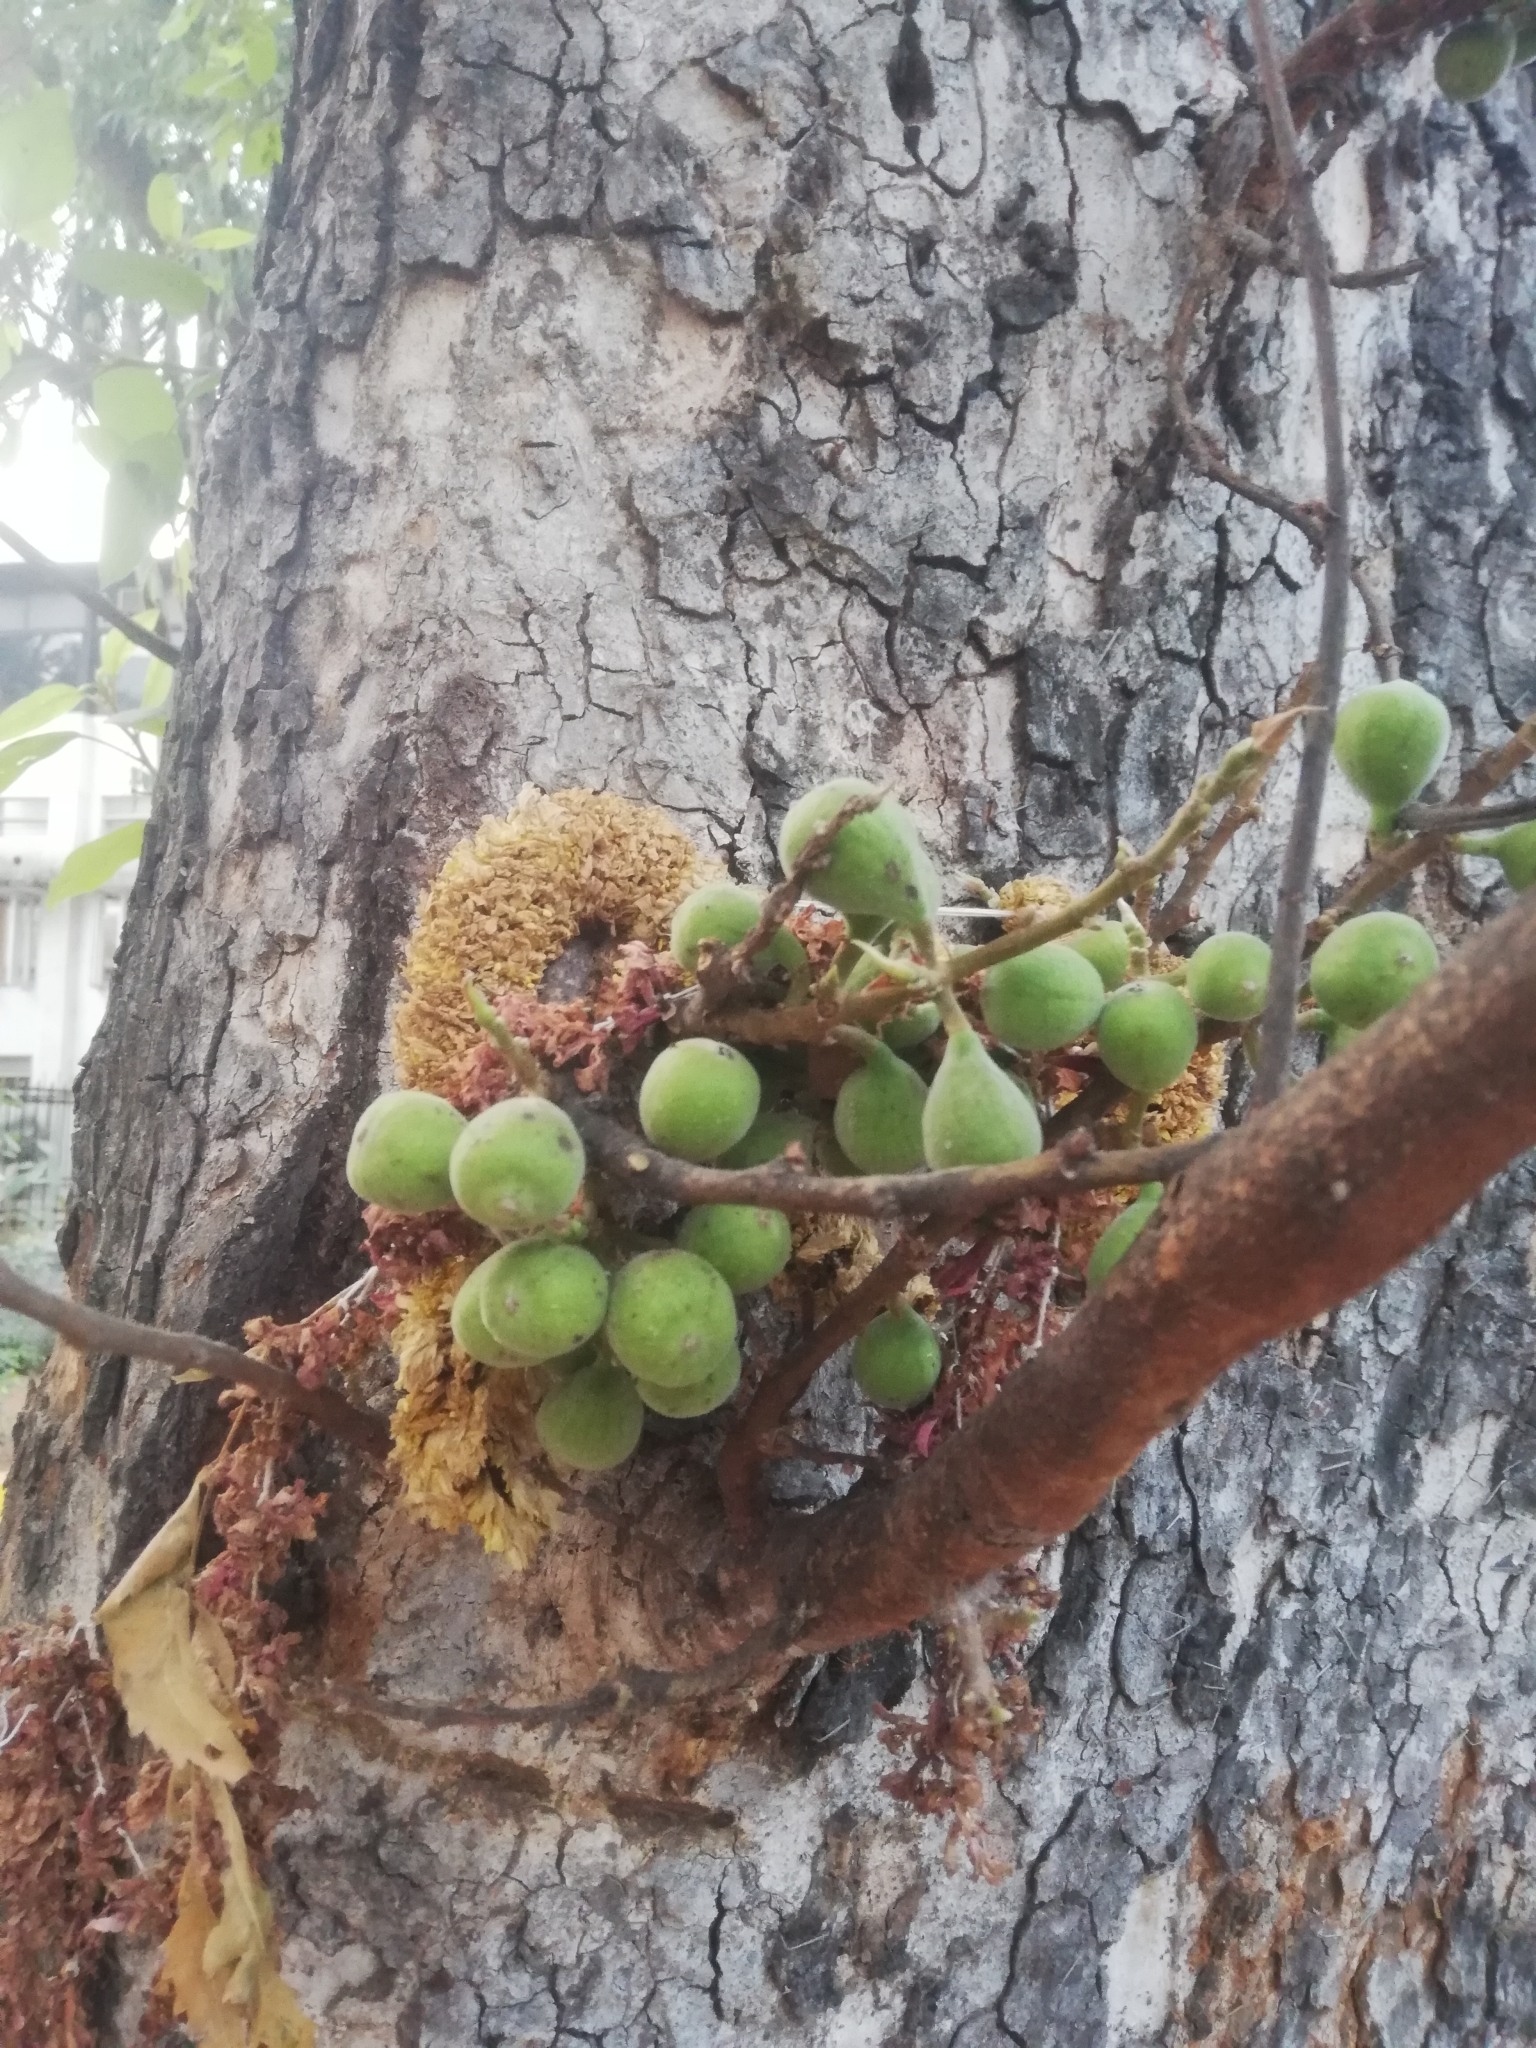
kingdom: Plantae
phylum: Tracheophyta
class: Magnoliopsida
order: Rosales
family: Moraceae
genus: Ficus
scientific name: Ficus racemosa
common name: Cluster fig
